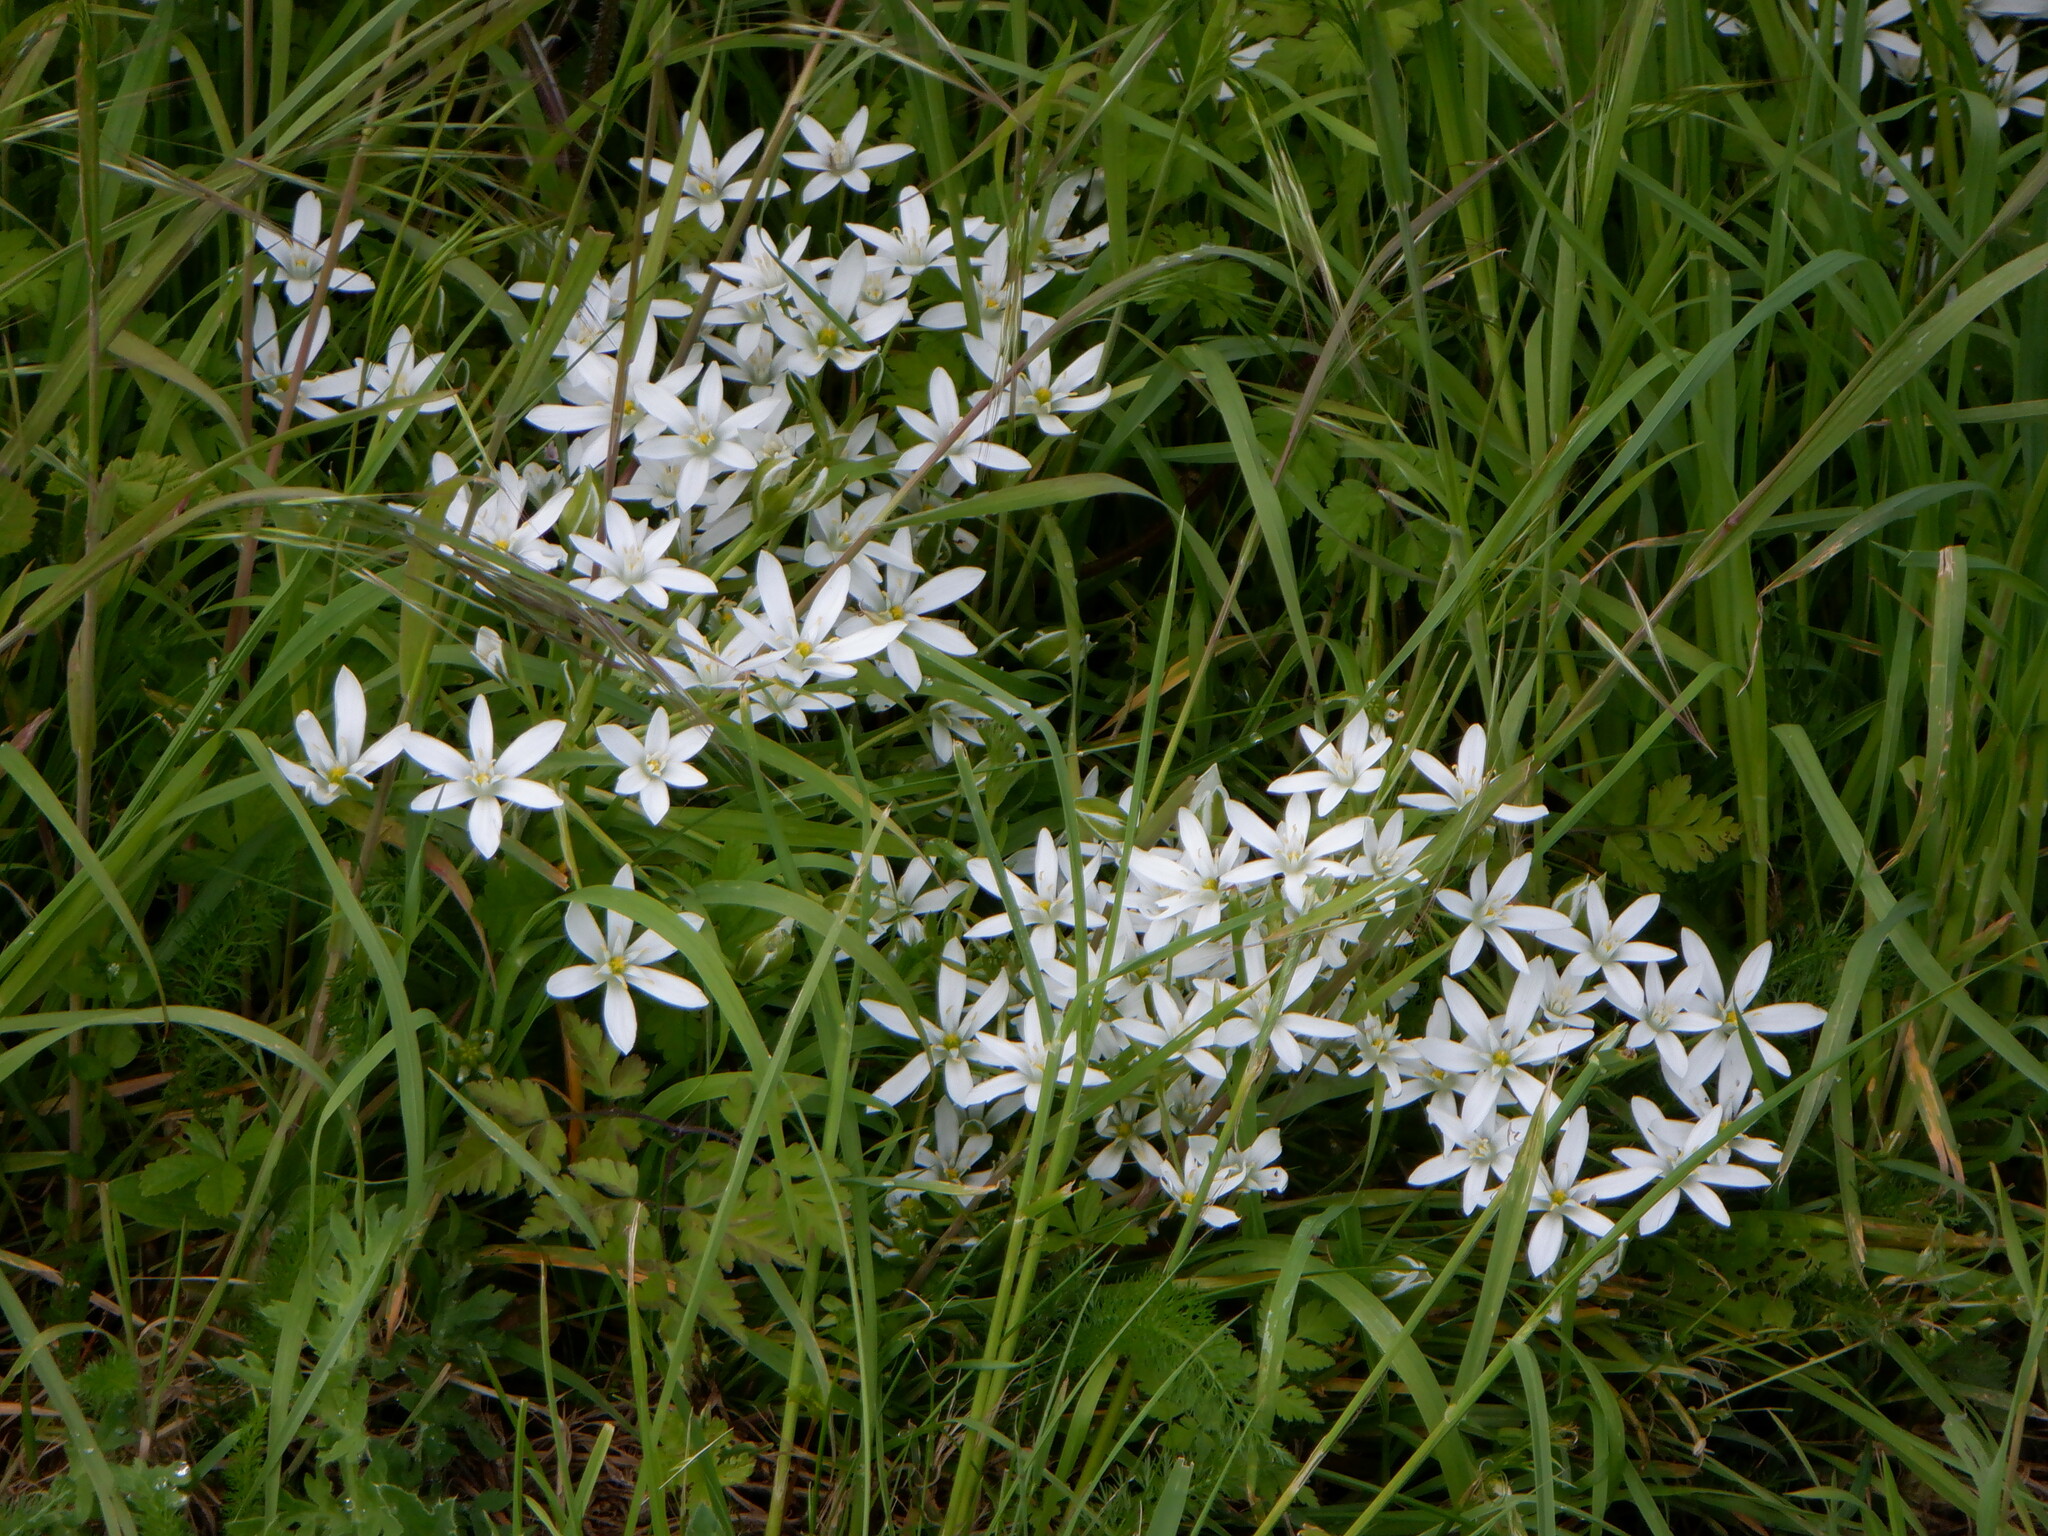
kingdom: Plantae
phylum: Tracheophyta
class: Liliopsida
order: Asparagales
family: Asparagaceae
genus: Ornithogalum
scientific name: Ornithogalum umbellatum
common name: Garden star-of-bethlehem
